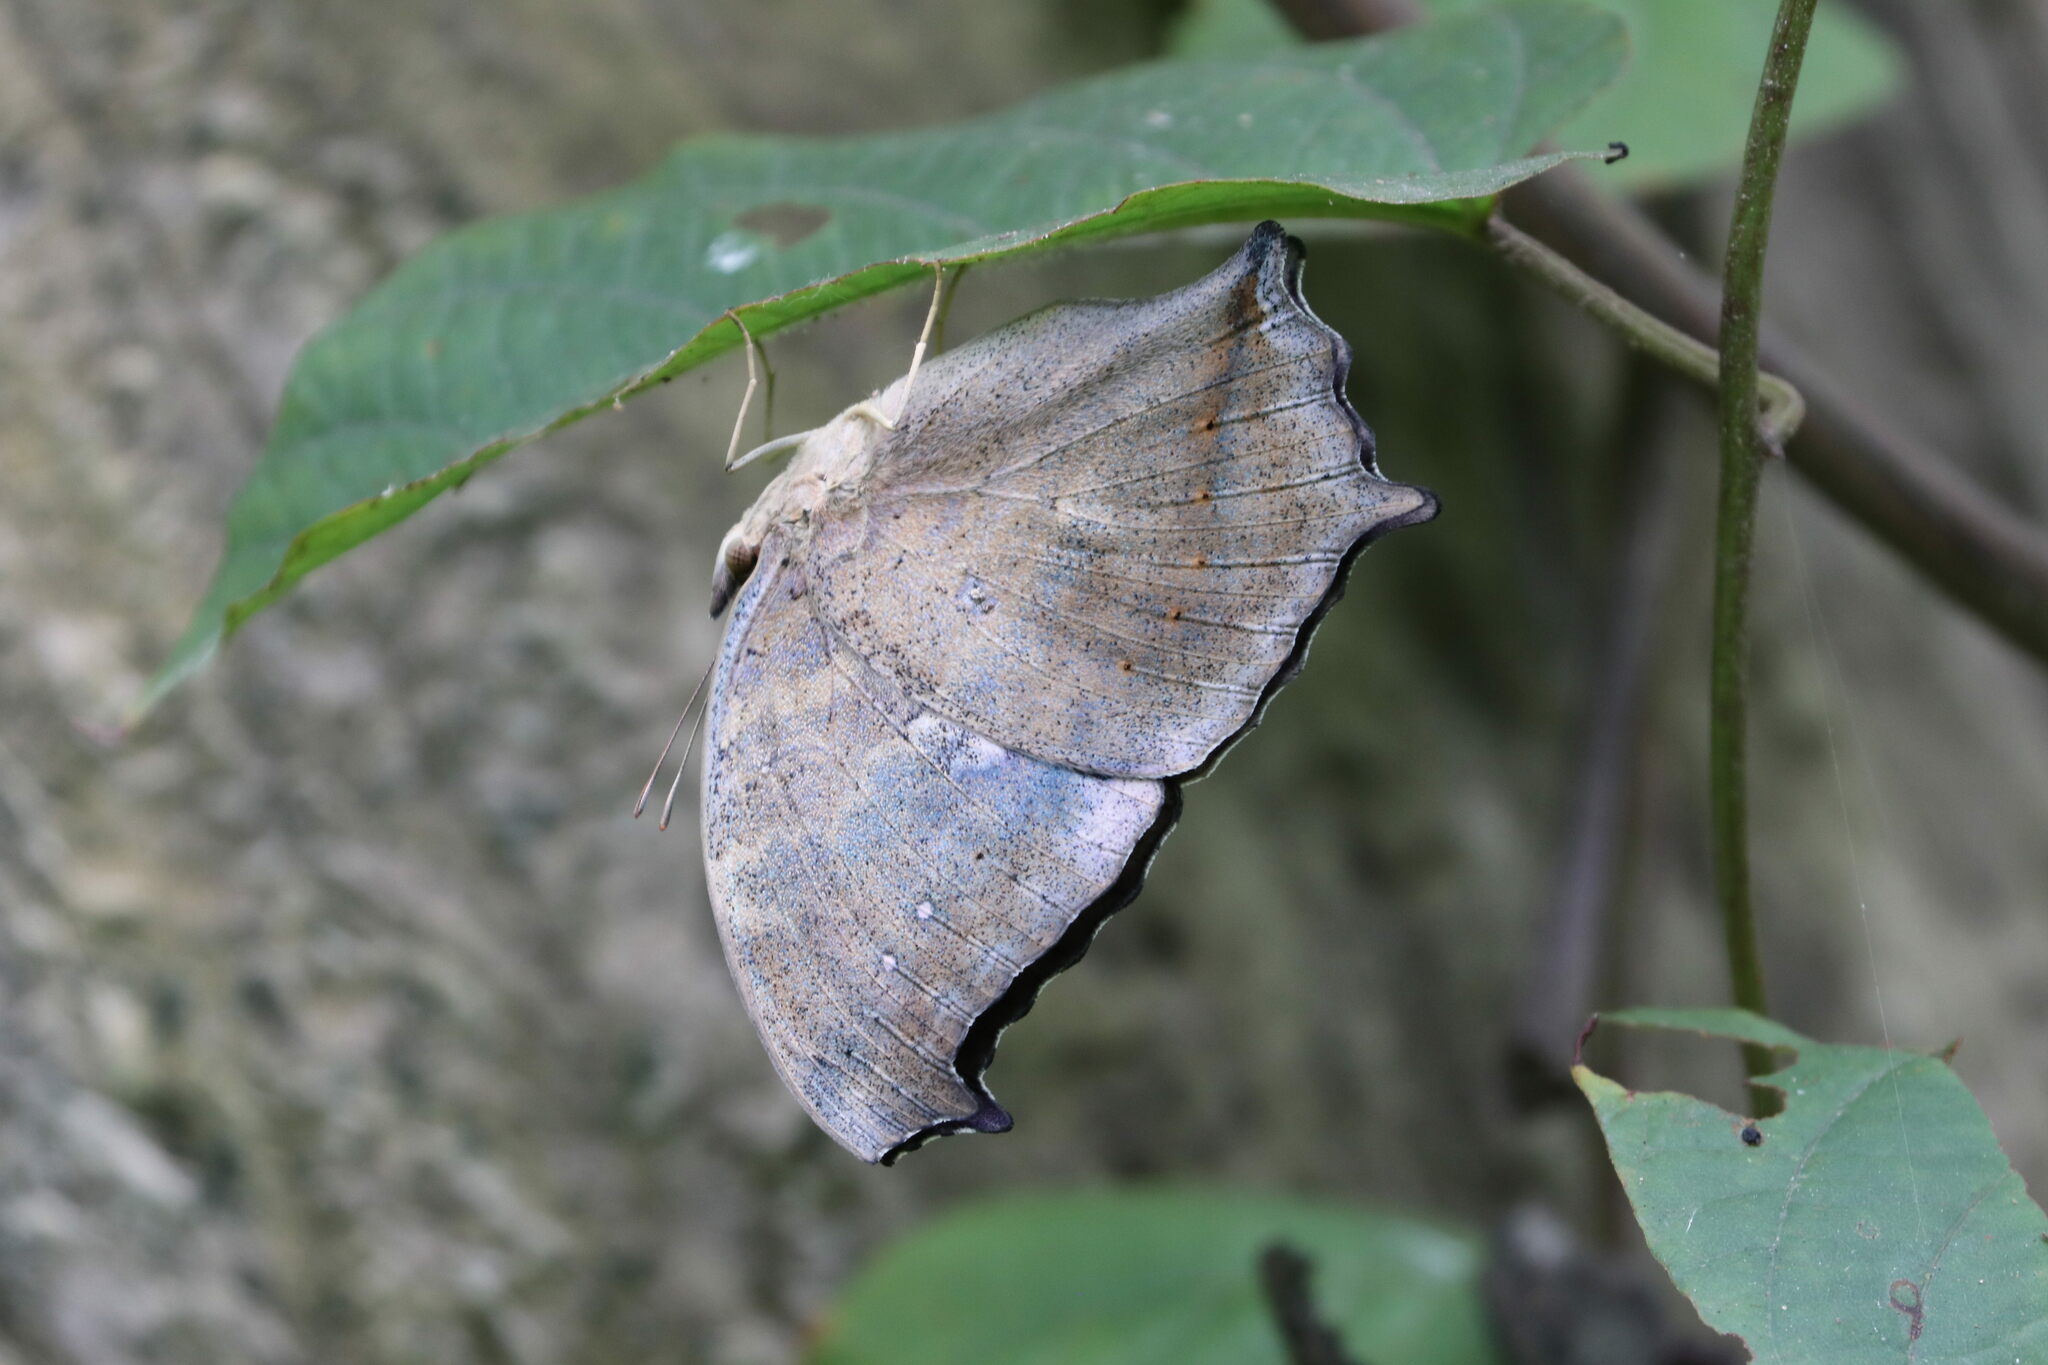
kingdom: Animalia
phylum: Arthropoda
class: Insecta
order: Lepidoptera
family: Nymphalidae
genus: Yoma
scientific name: Yoma sabina
